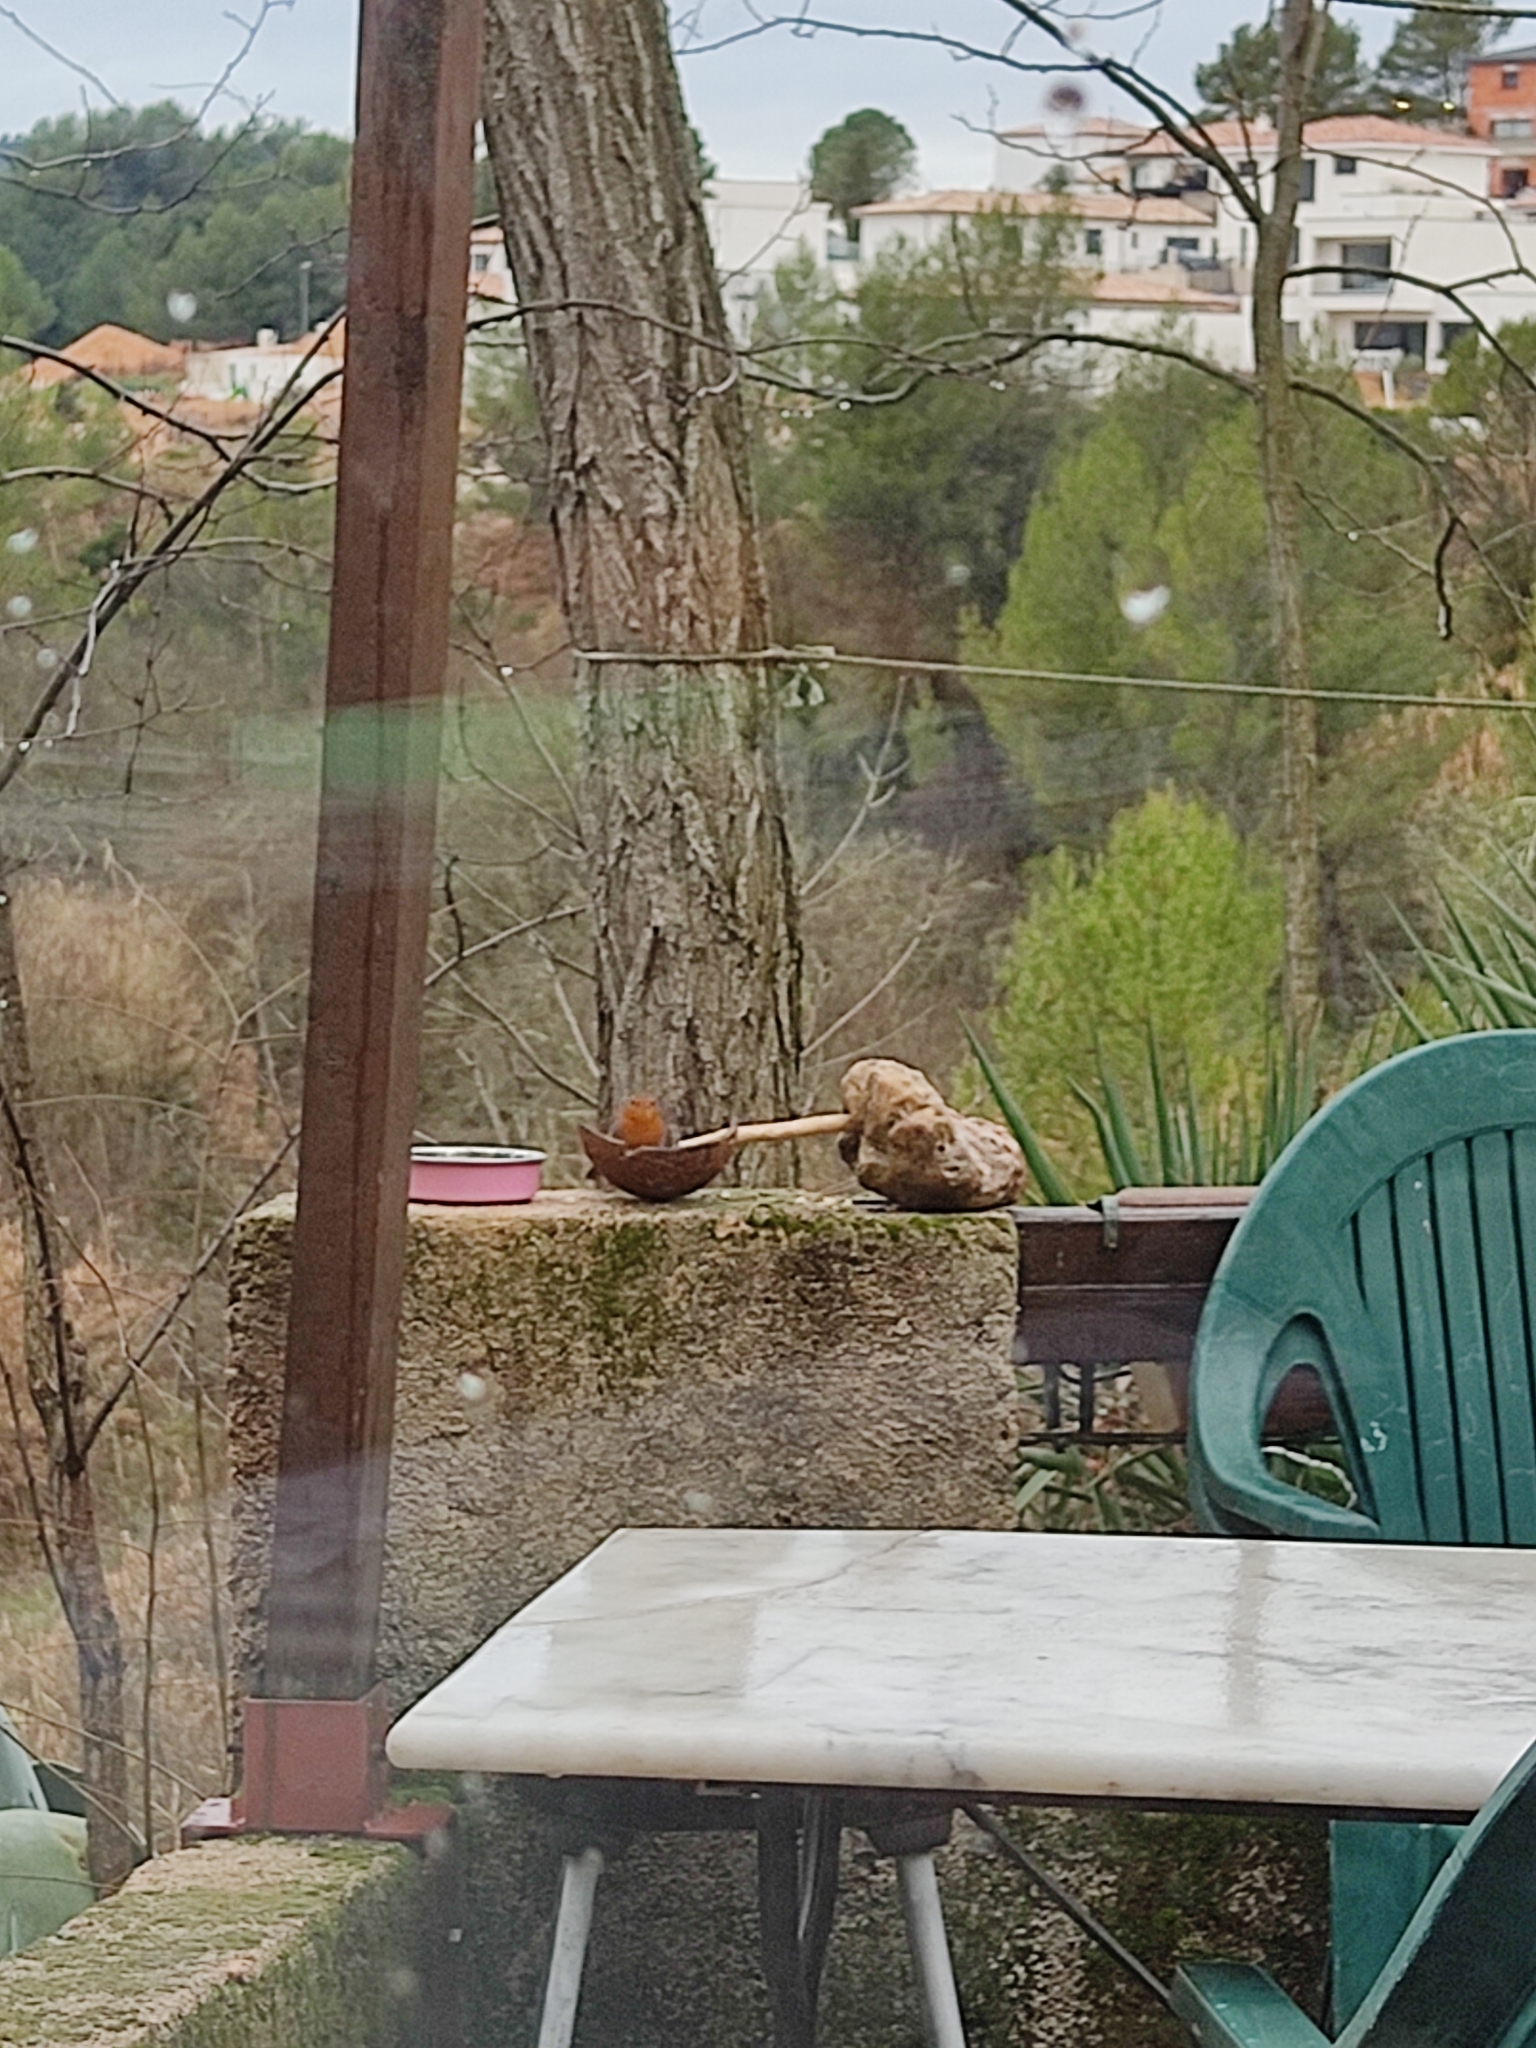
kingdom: Animalia
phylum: Chordata
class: Aves
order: Passeriformes
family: Muscicapidae
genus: Erithacus
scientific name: Erithacus rubecula
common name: European robin
